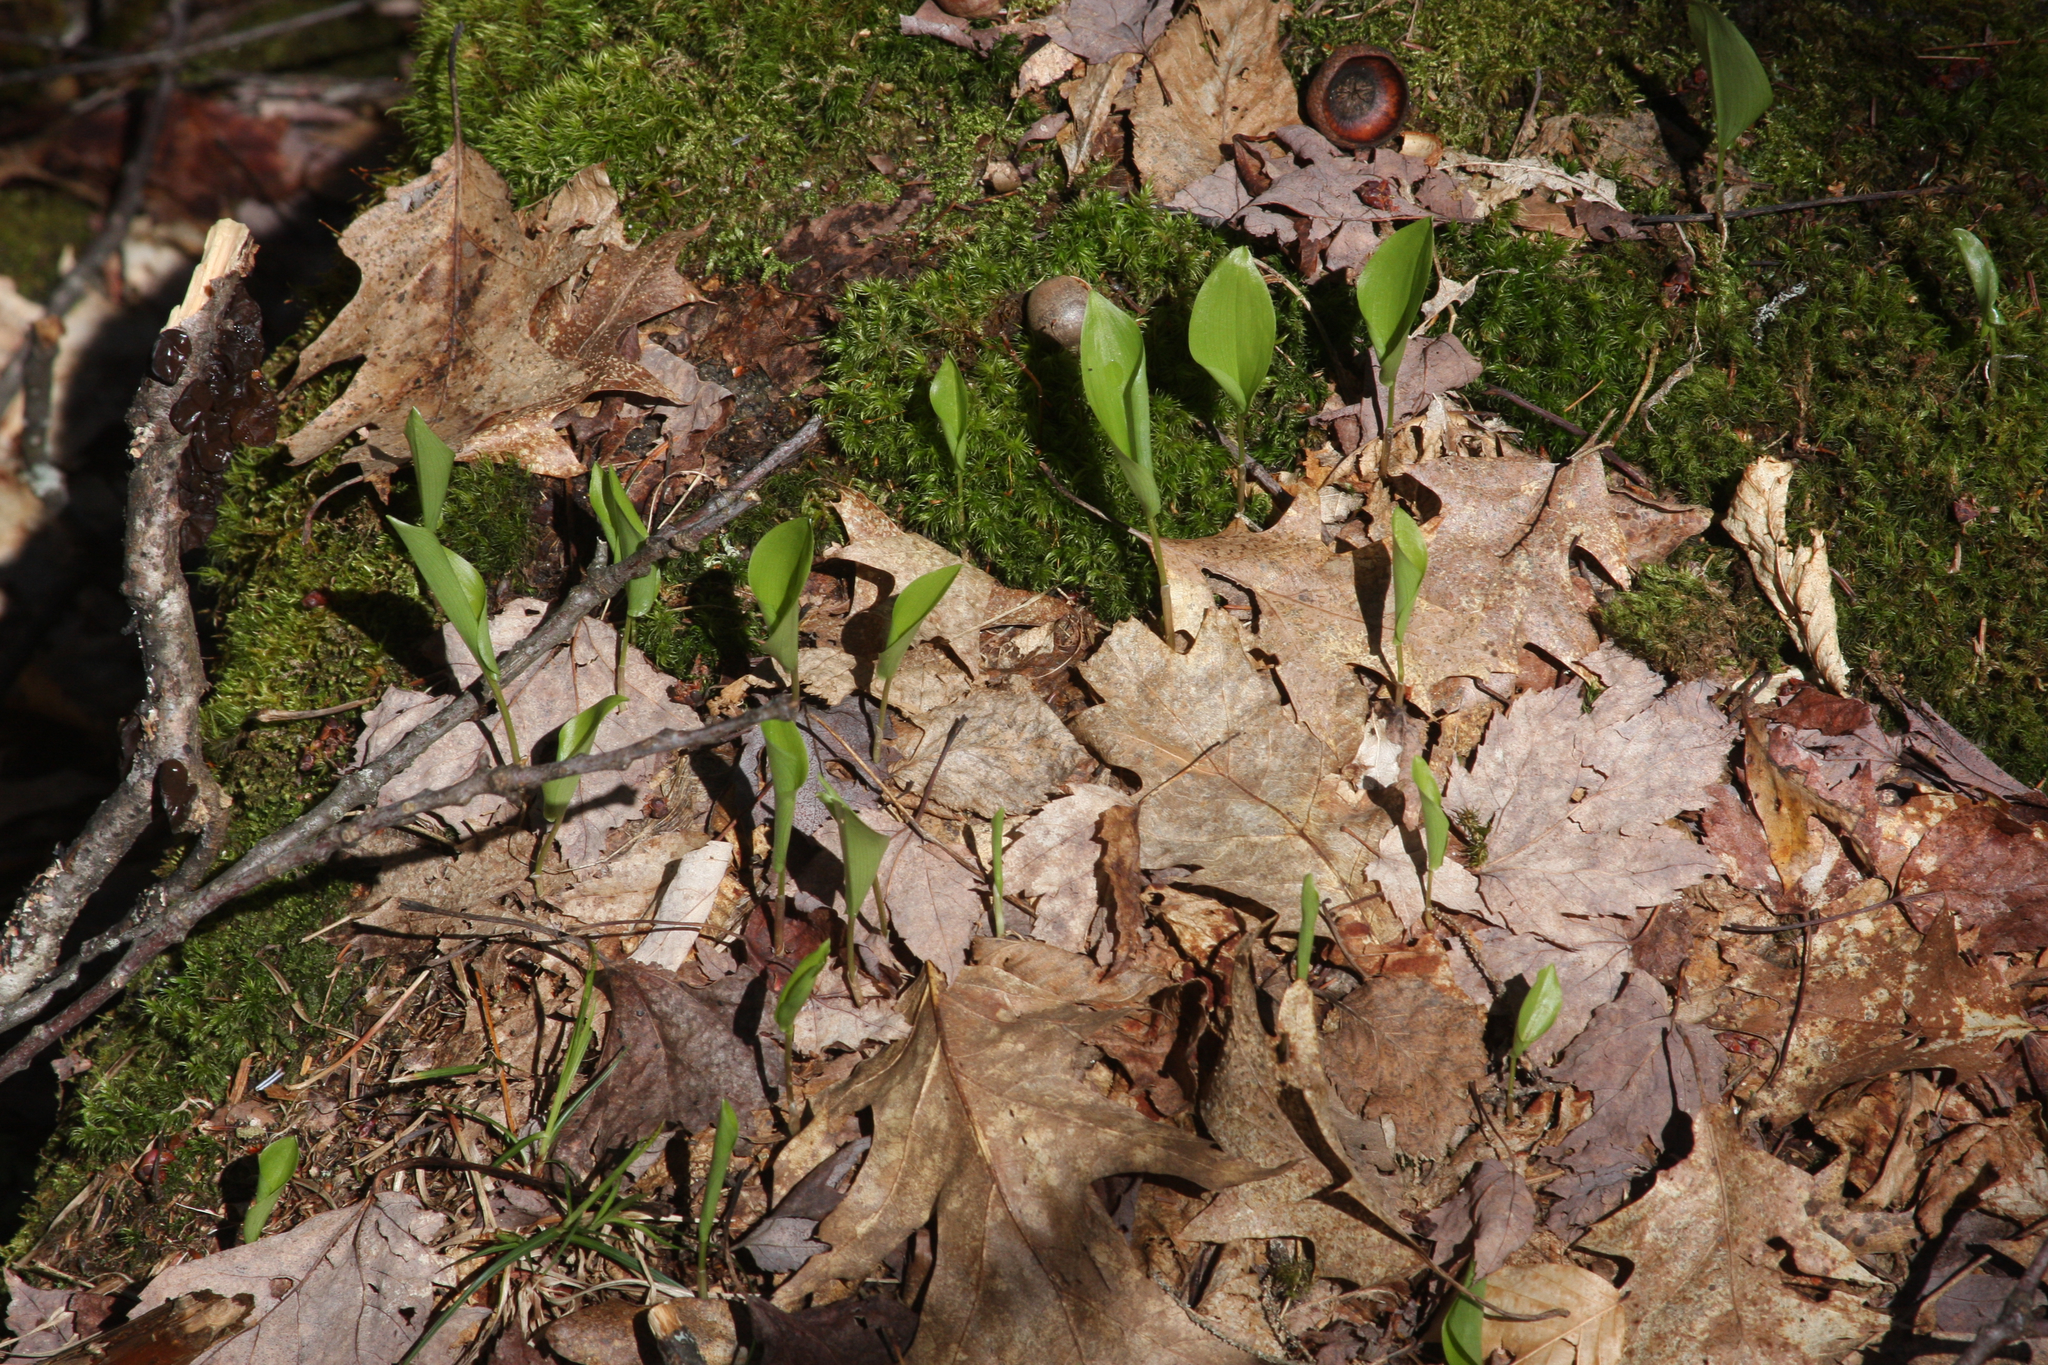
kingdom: Plantae
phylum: Tracheophyta
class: Liliopsida
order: Asparagales
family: Asparagaceae
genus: Maianthemum
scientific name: Maianthemum canadense
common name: False lily-of-the-valley
